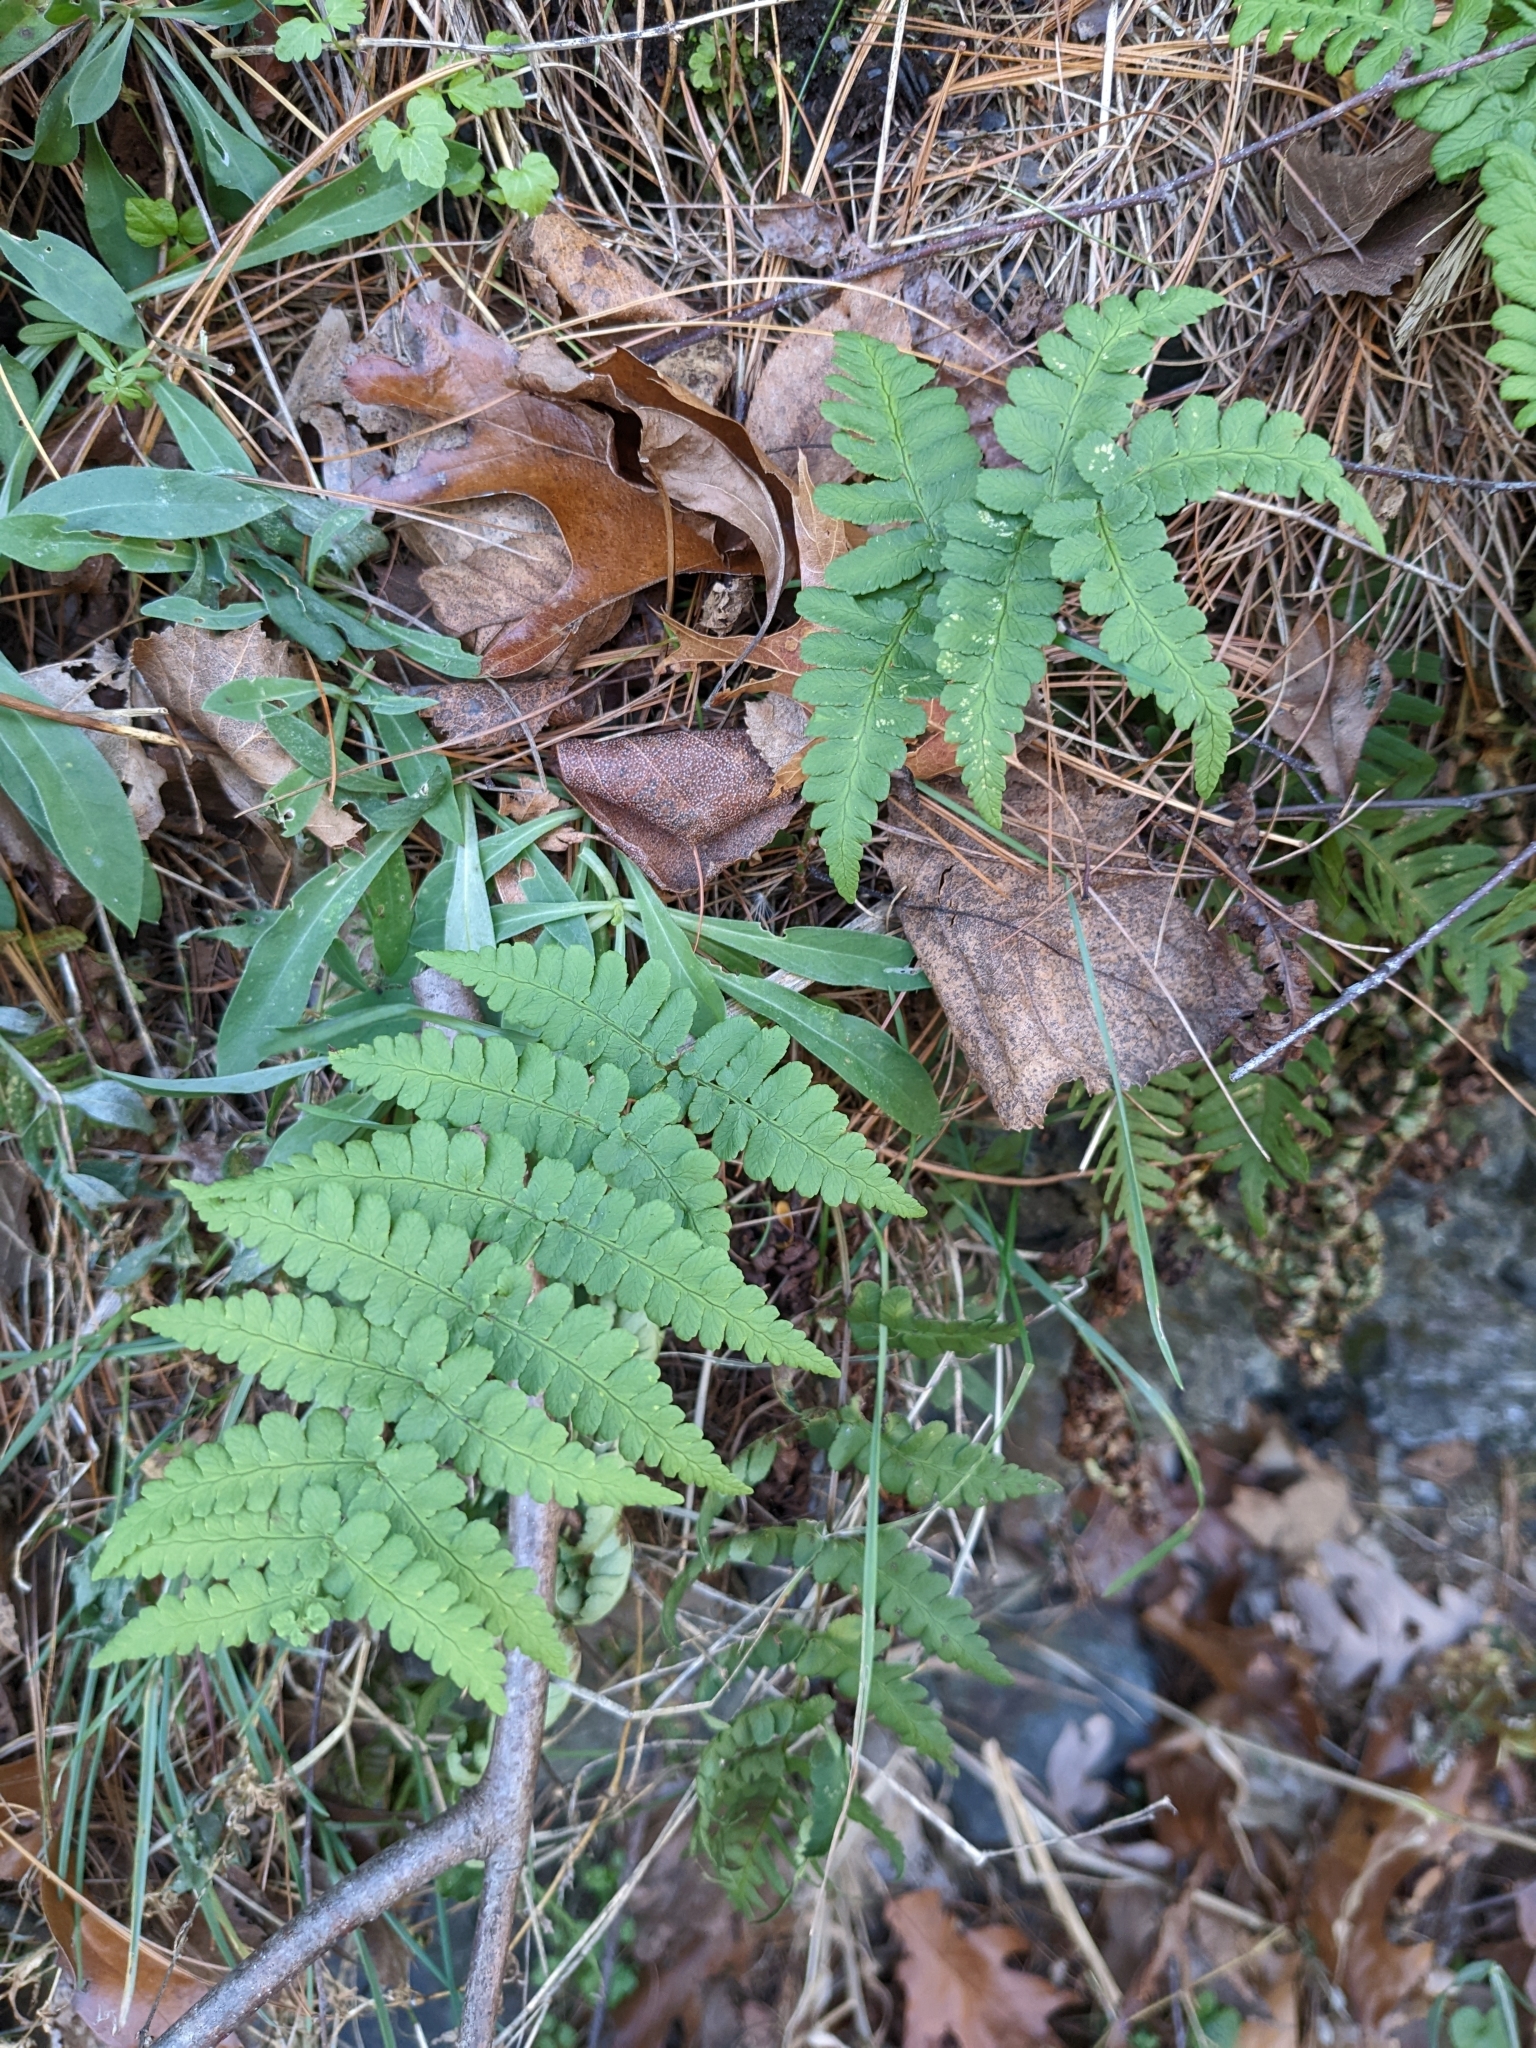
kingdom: Plantae
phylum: Tracheophyta
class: Polypodiopsida
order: Polypodiales
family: Dryopteridaceae
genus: Dryopteris
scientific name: Dryopteris marginalis
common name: Marginal wood fern
